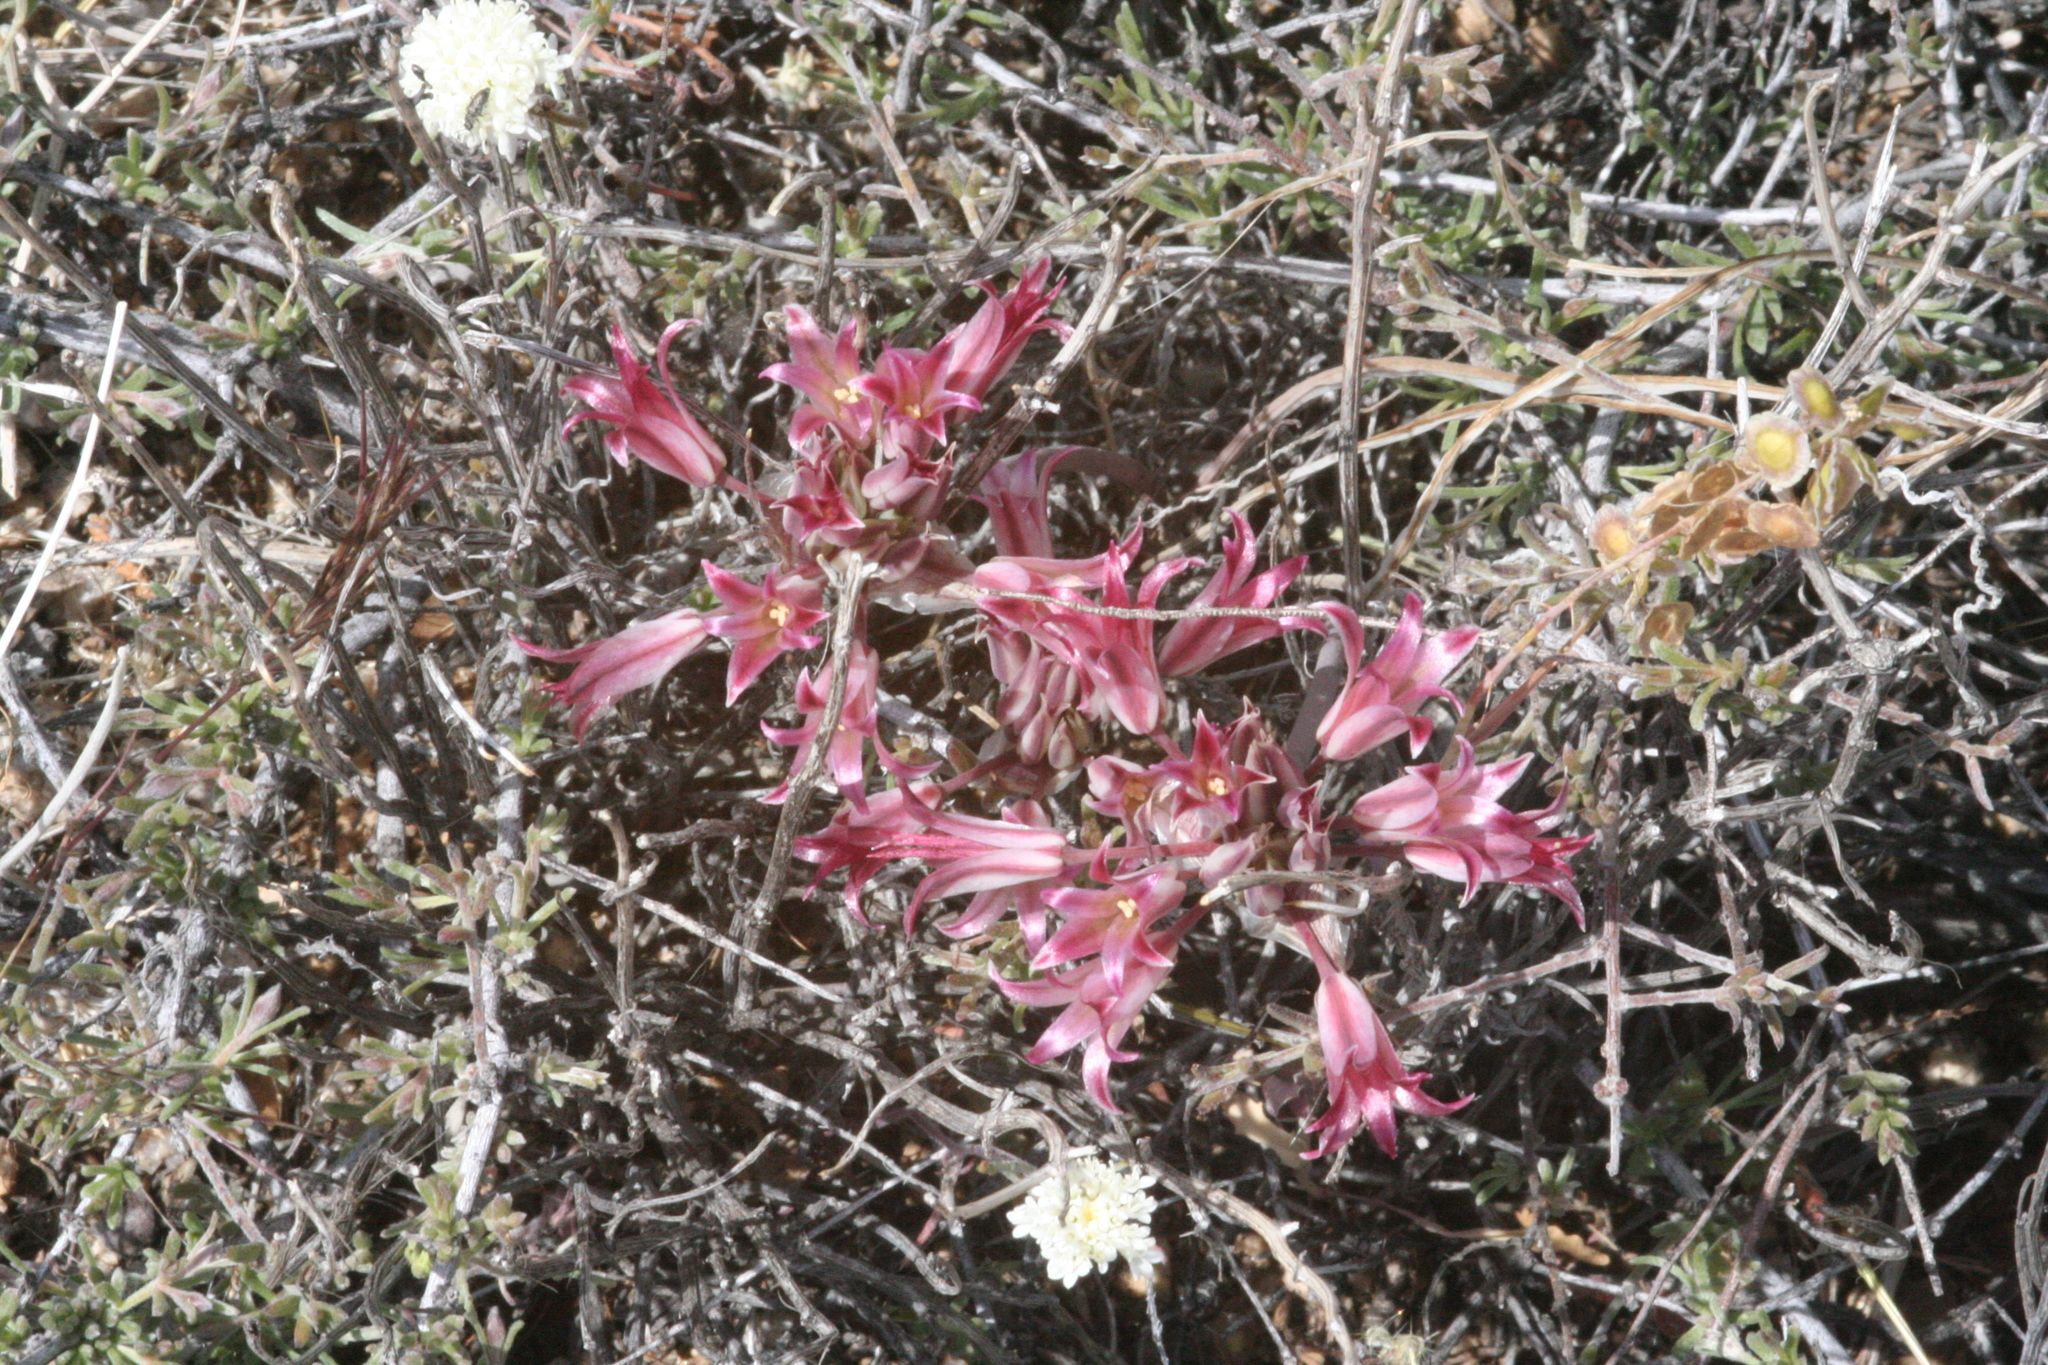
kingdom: Plantae
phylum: Tracheophyta
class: Liliopsida
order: Asparagales
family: Amaryllidaceae
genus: Allium
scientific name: Allium parishii
